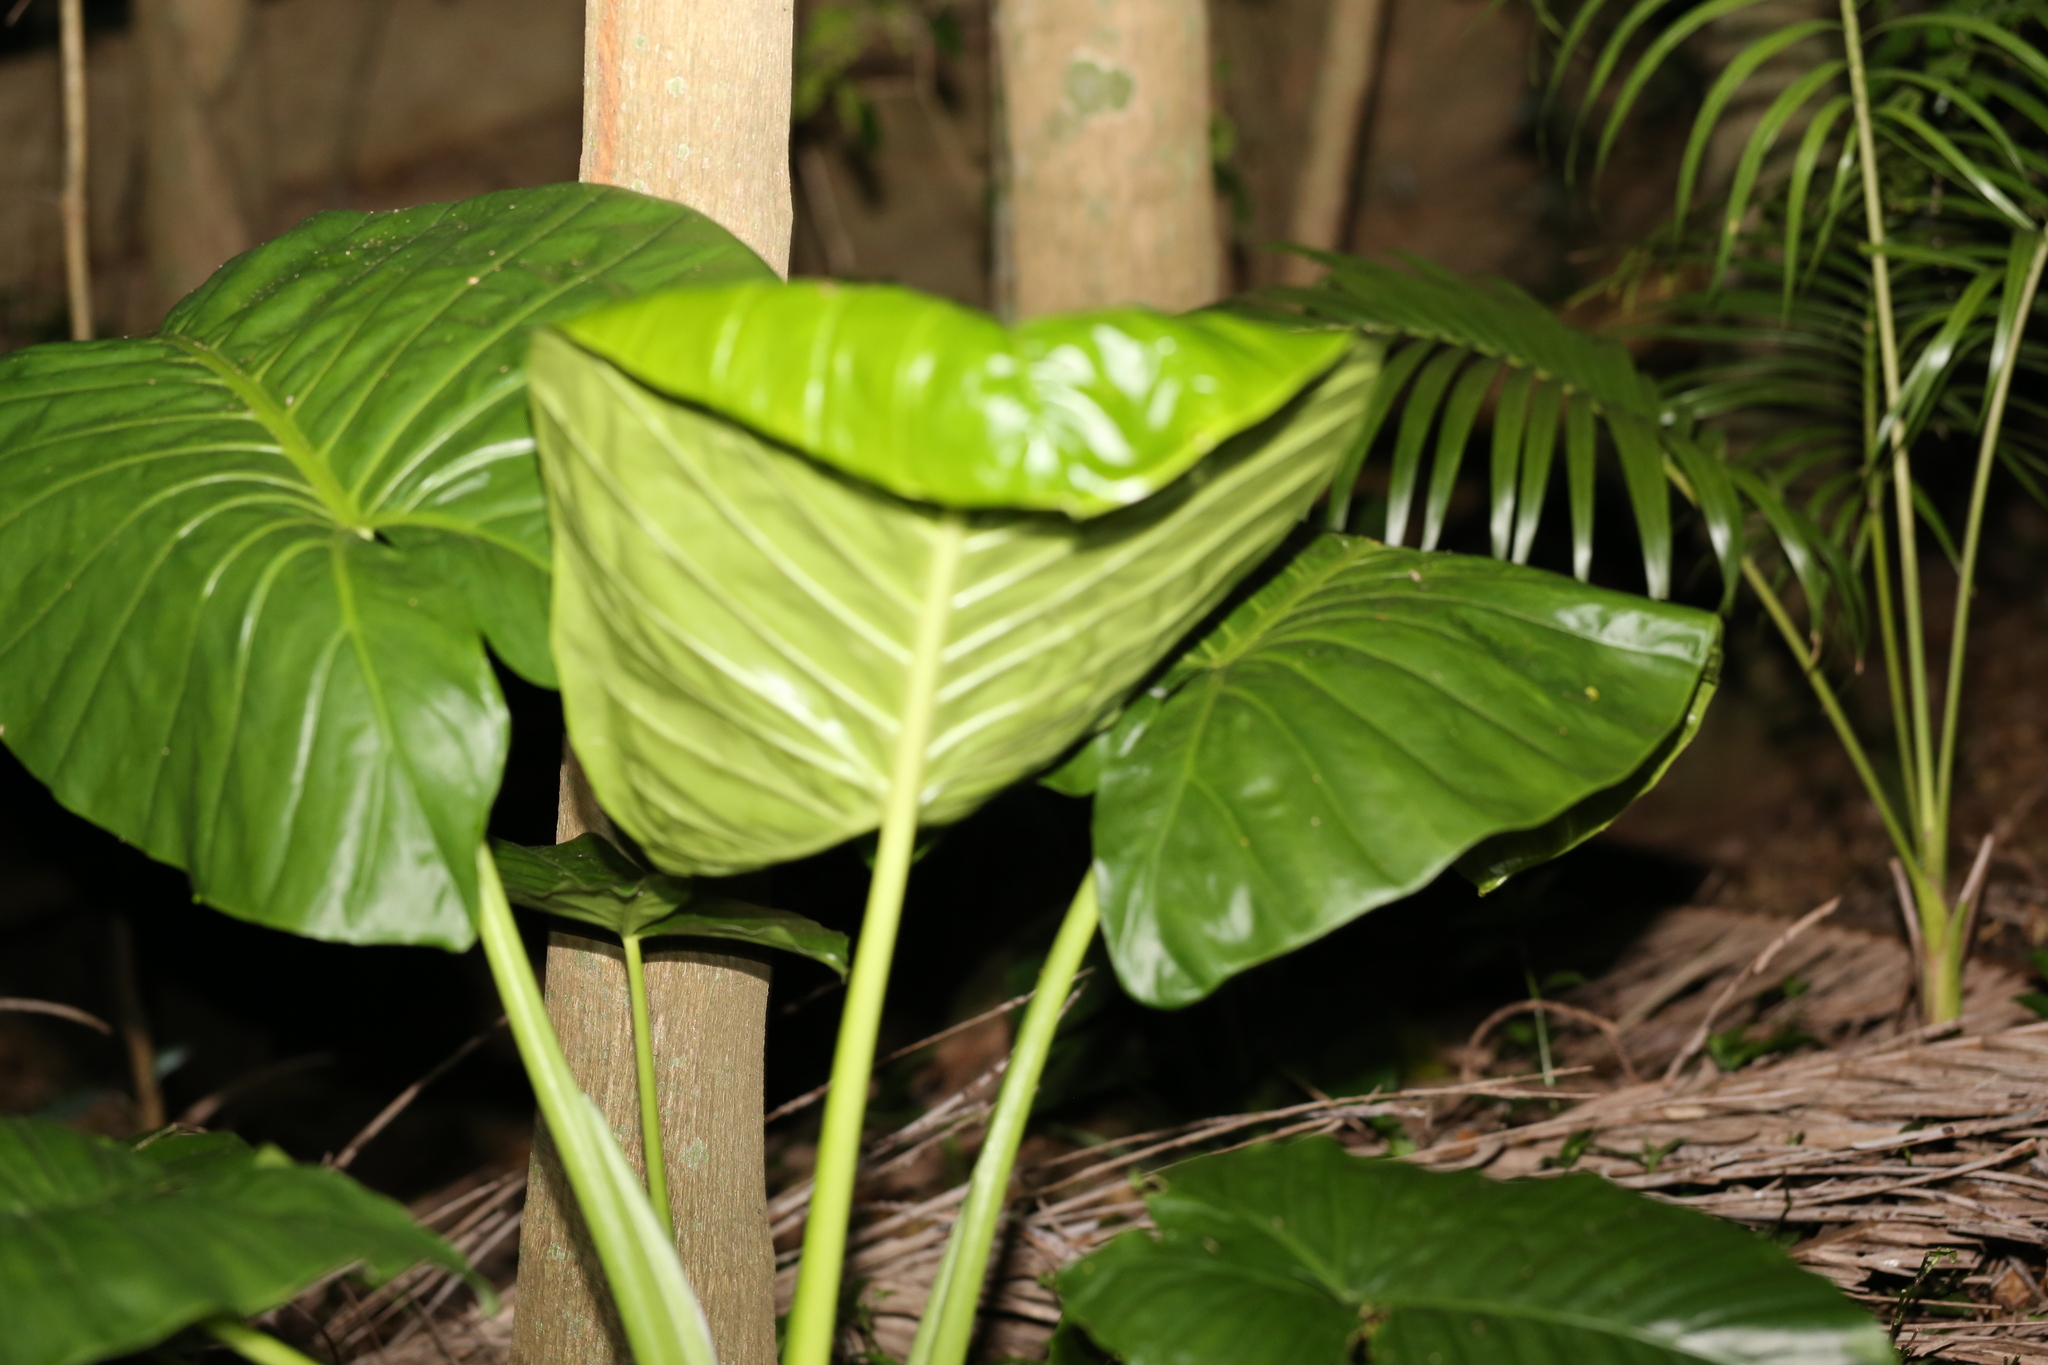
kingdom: Plantae
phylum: Tracheophyta
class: Liliopsida
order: Alismatales
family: Araceae
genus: Alocasia
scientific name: Alocasia brisbanensis
